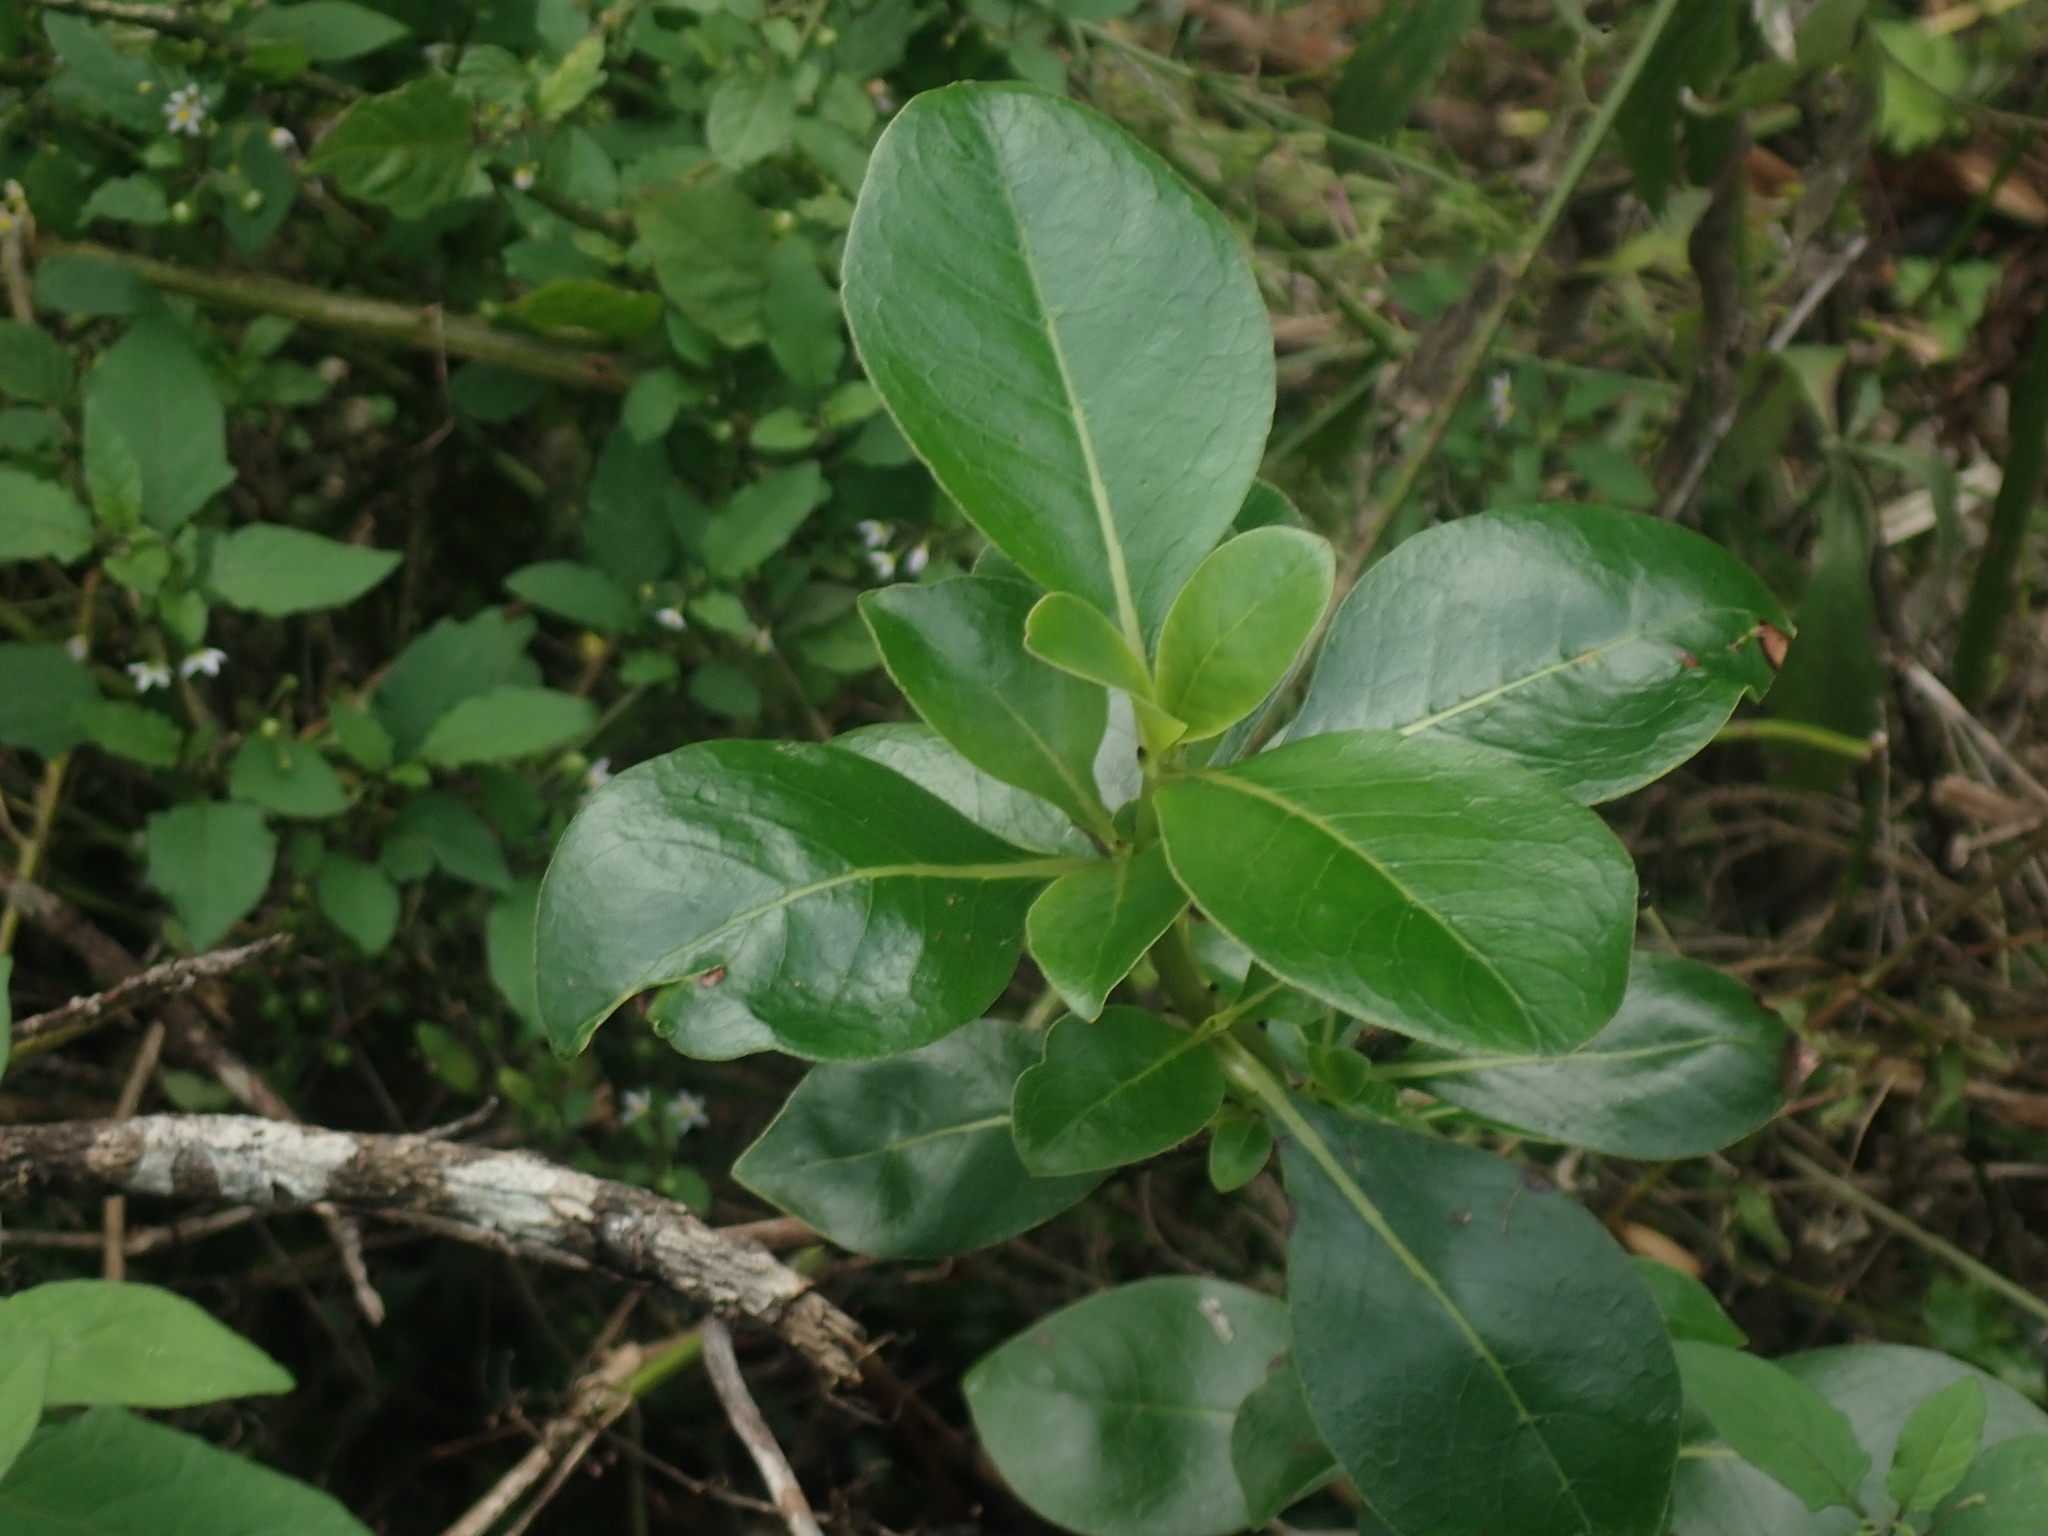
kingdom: Plantae
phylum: Tracheophyta
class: Magnoliopsida
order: Gentianales
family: Rubiaceae
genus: Coprosma
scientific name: Coprosma robusta
